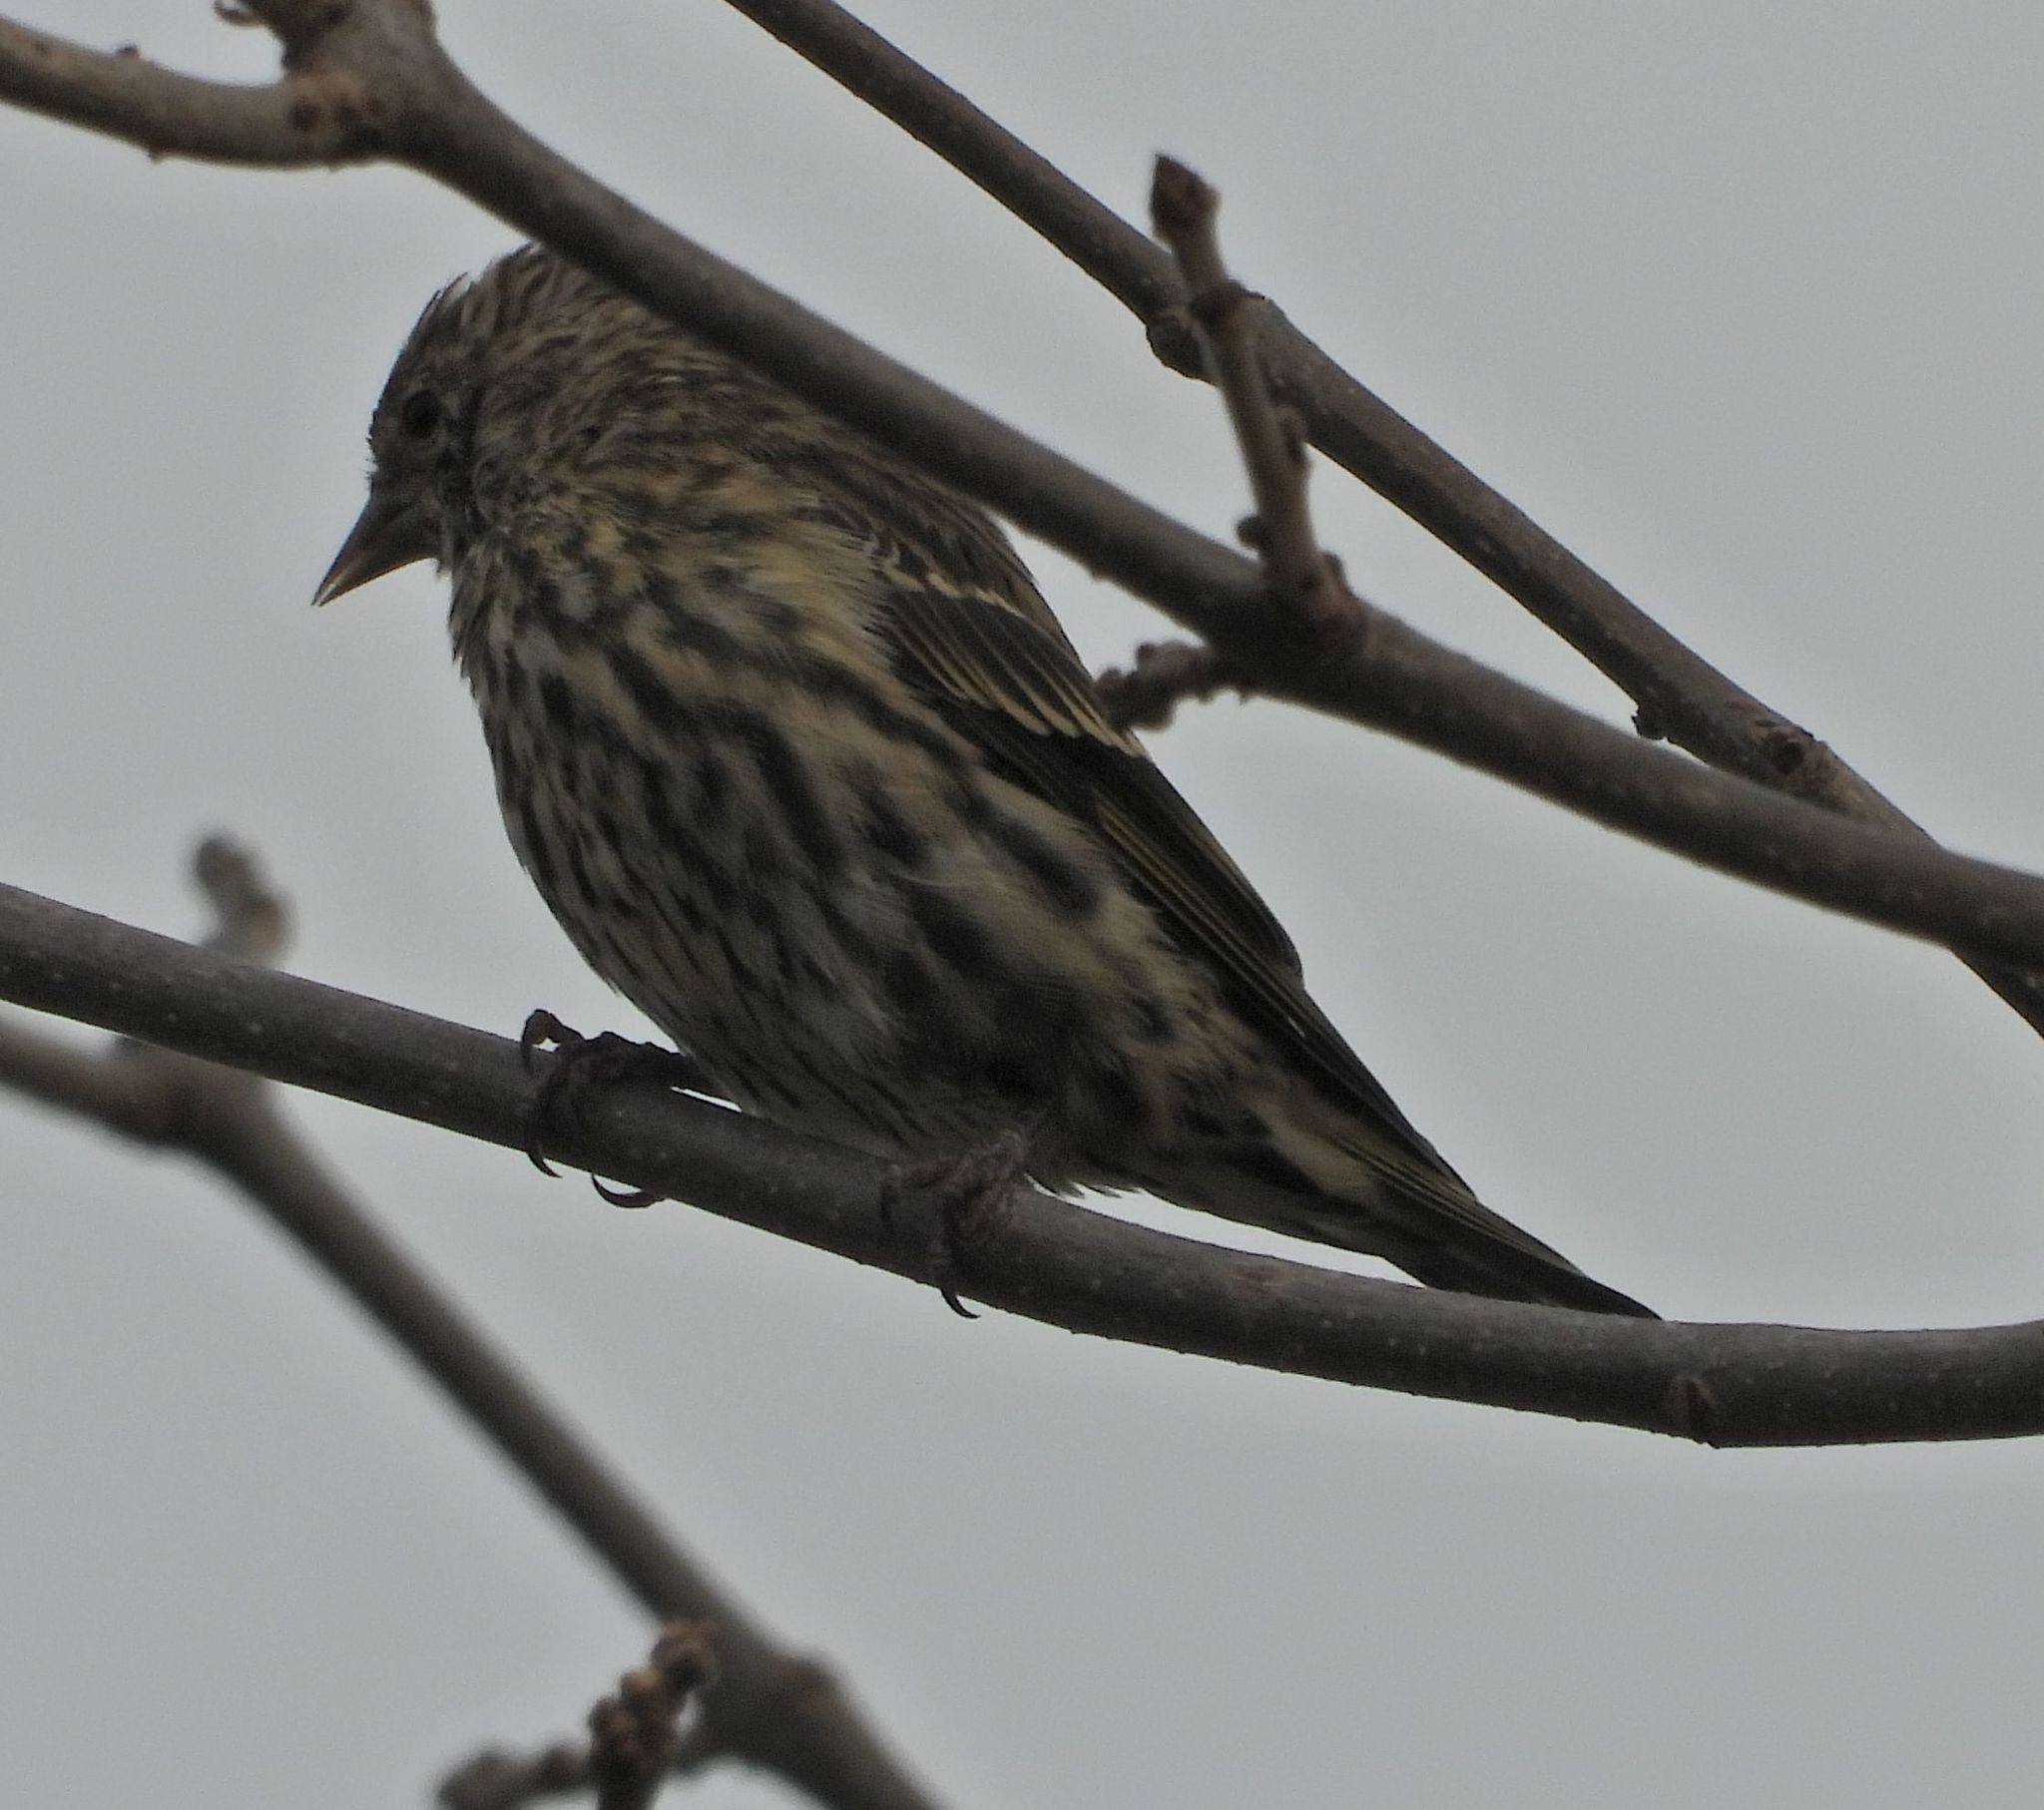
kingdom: Animalia
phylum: Chordata
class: Aves
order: Passeriformes
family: Fringillidae
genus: Spinus
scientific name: Spinus pinus
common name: Pine siskin
